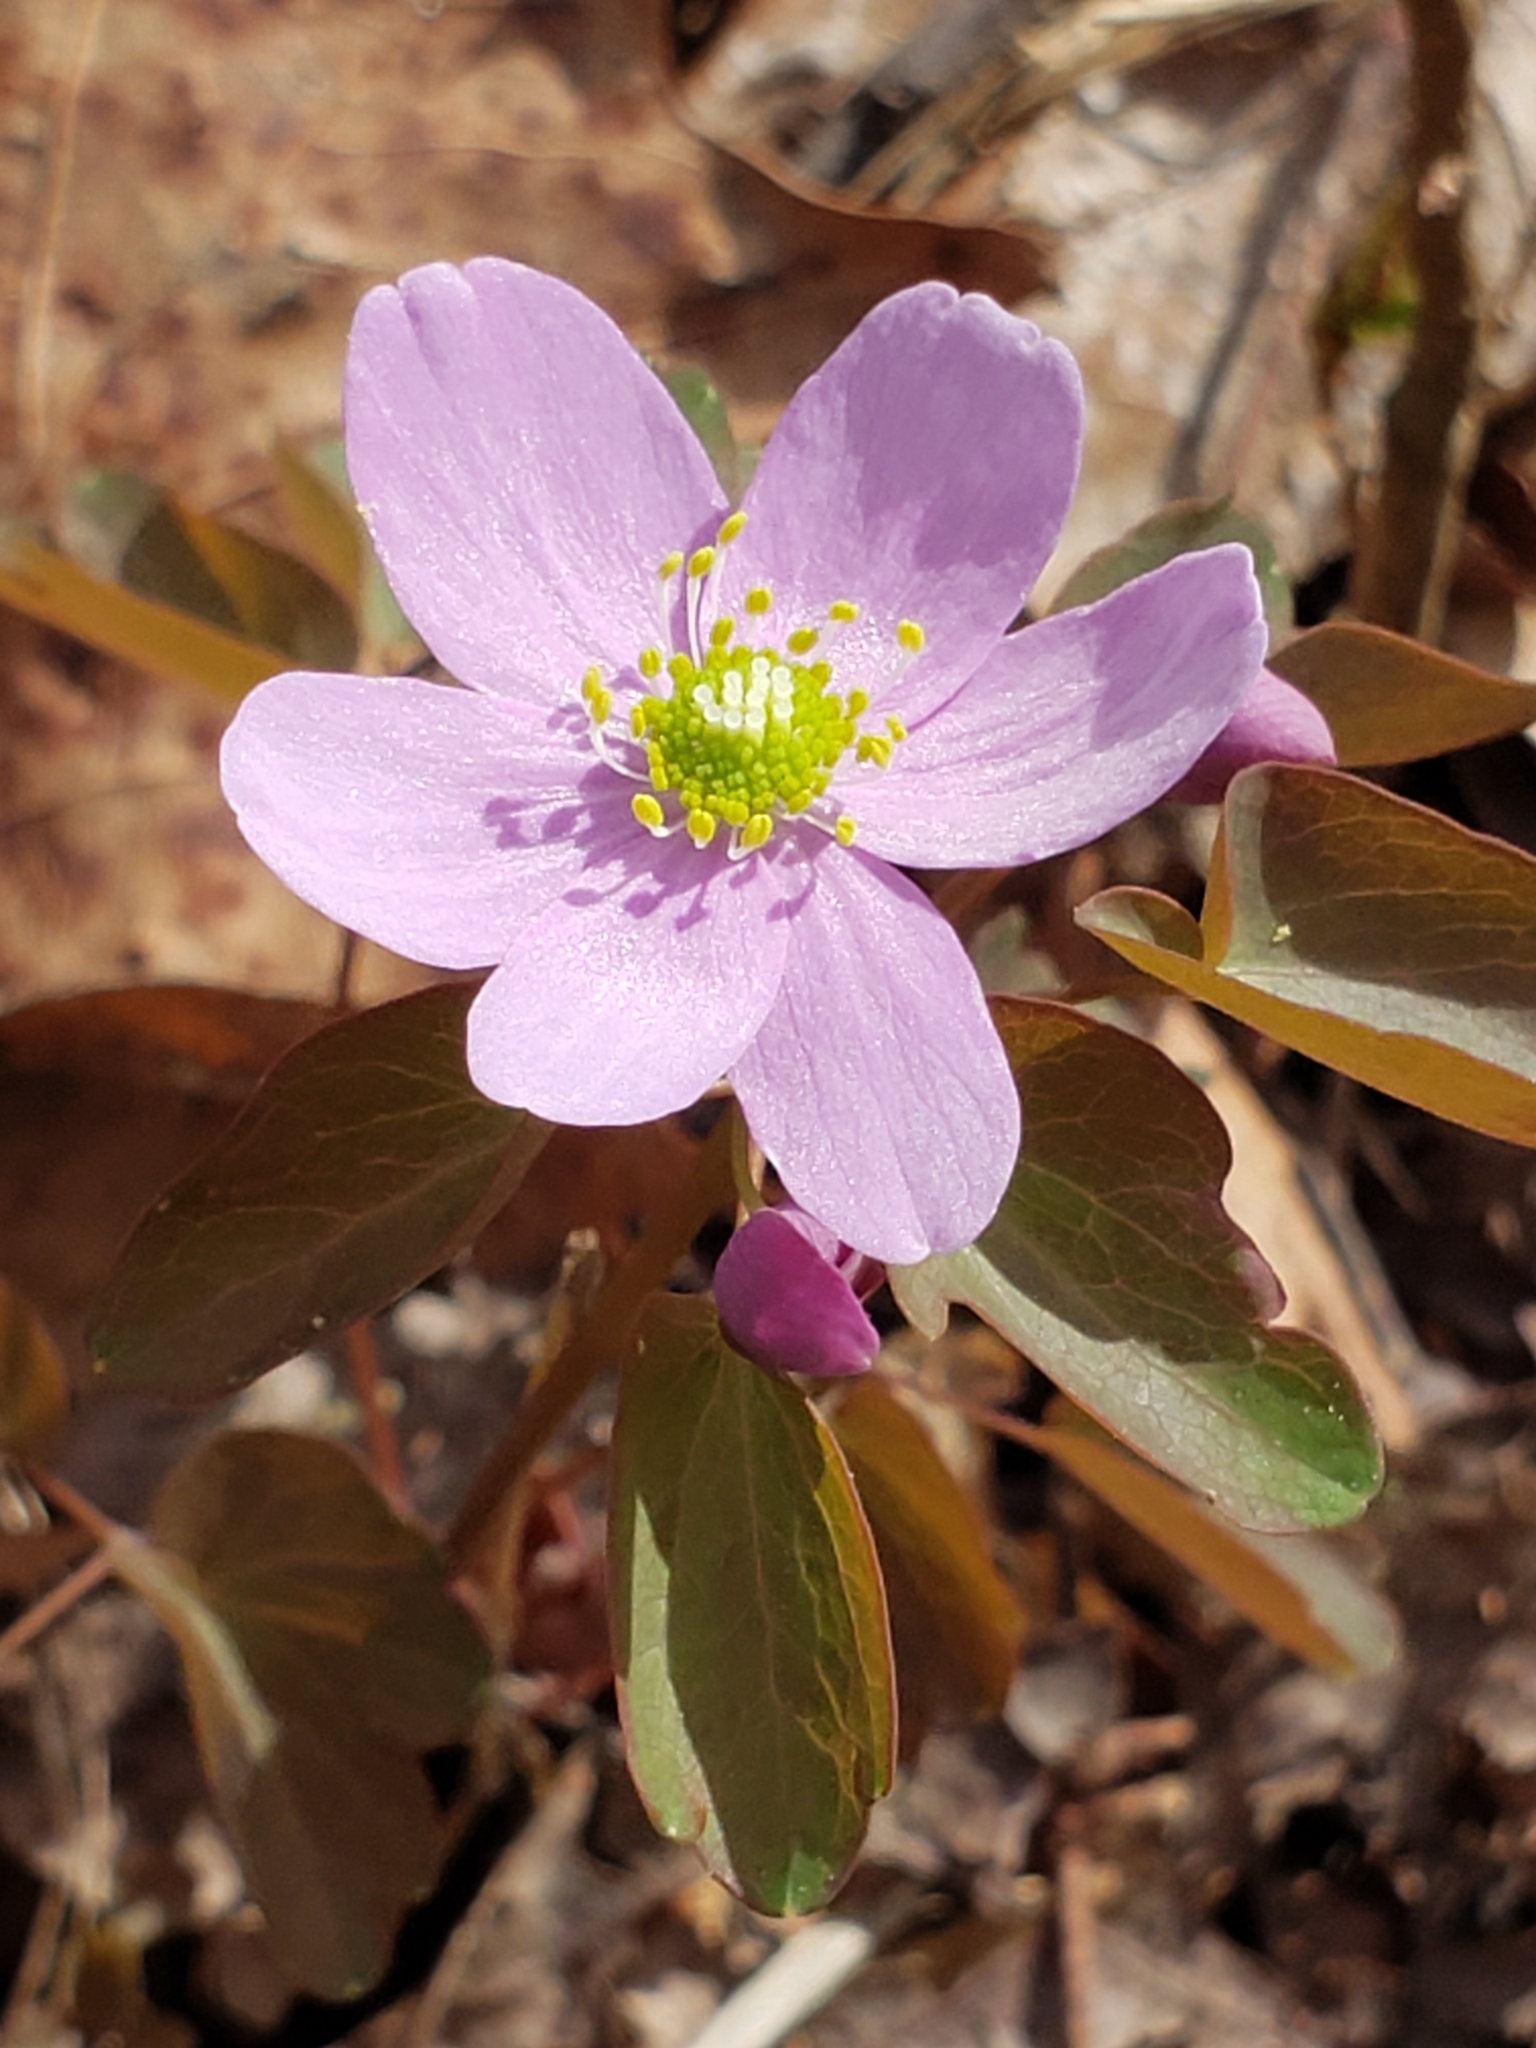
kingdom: Plantae
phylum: Tracheophyta
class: Magnoliopsida
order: Ranunculales
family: Ranunculaceae
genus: Thalictrum
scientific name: Thalictrum thalictroides
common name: Rue-anemone
